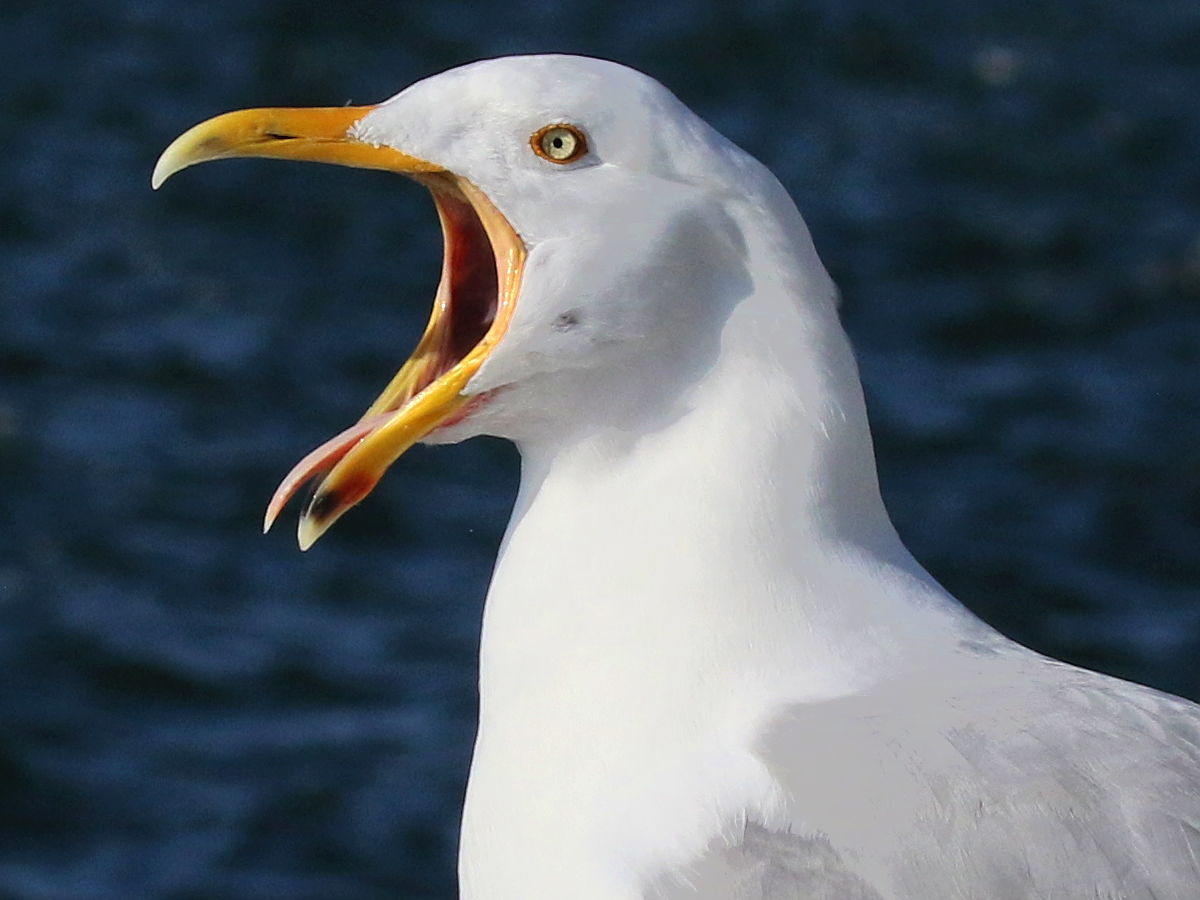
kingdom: Animalia
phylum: Chordata
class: Aves
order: Charadriiformes
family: Laridae
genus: Larus
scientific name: Larus argentatus
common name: Herring gull
